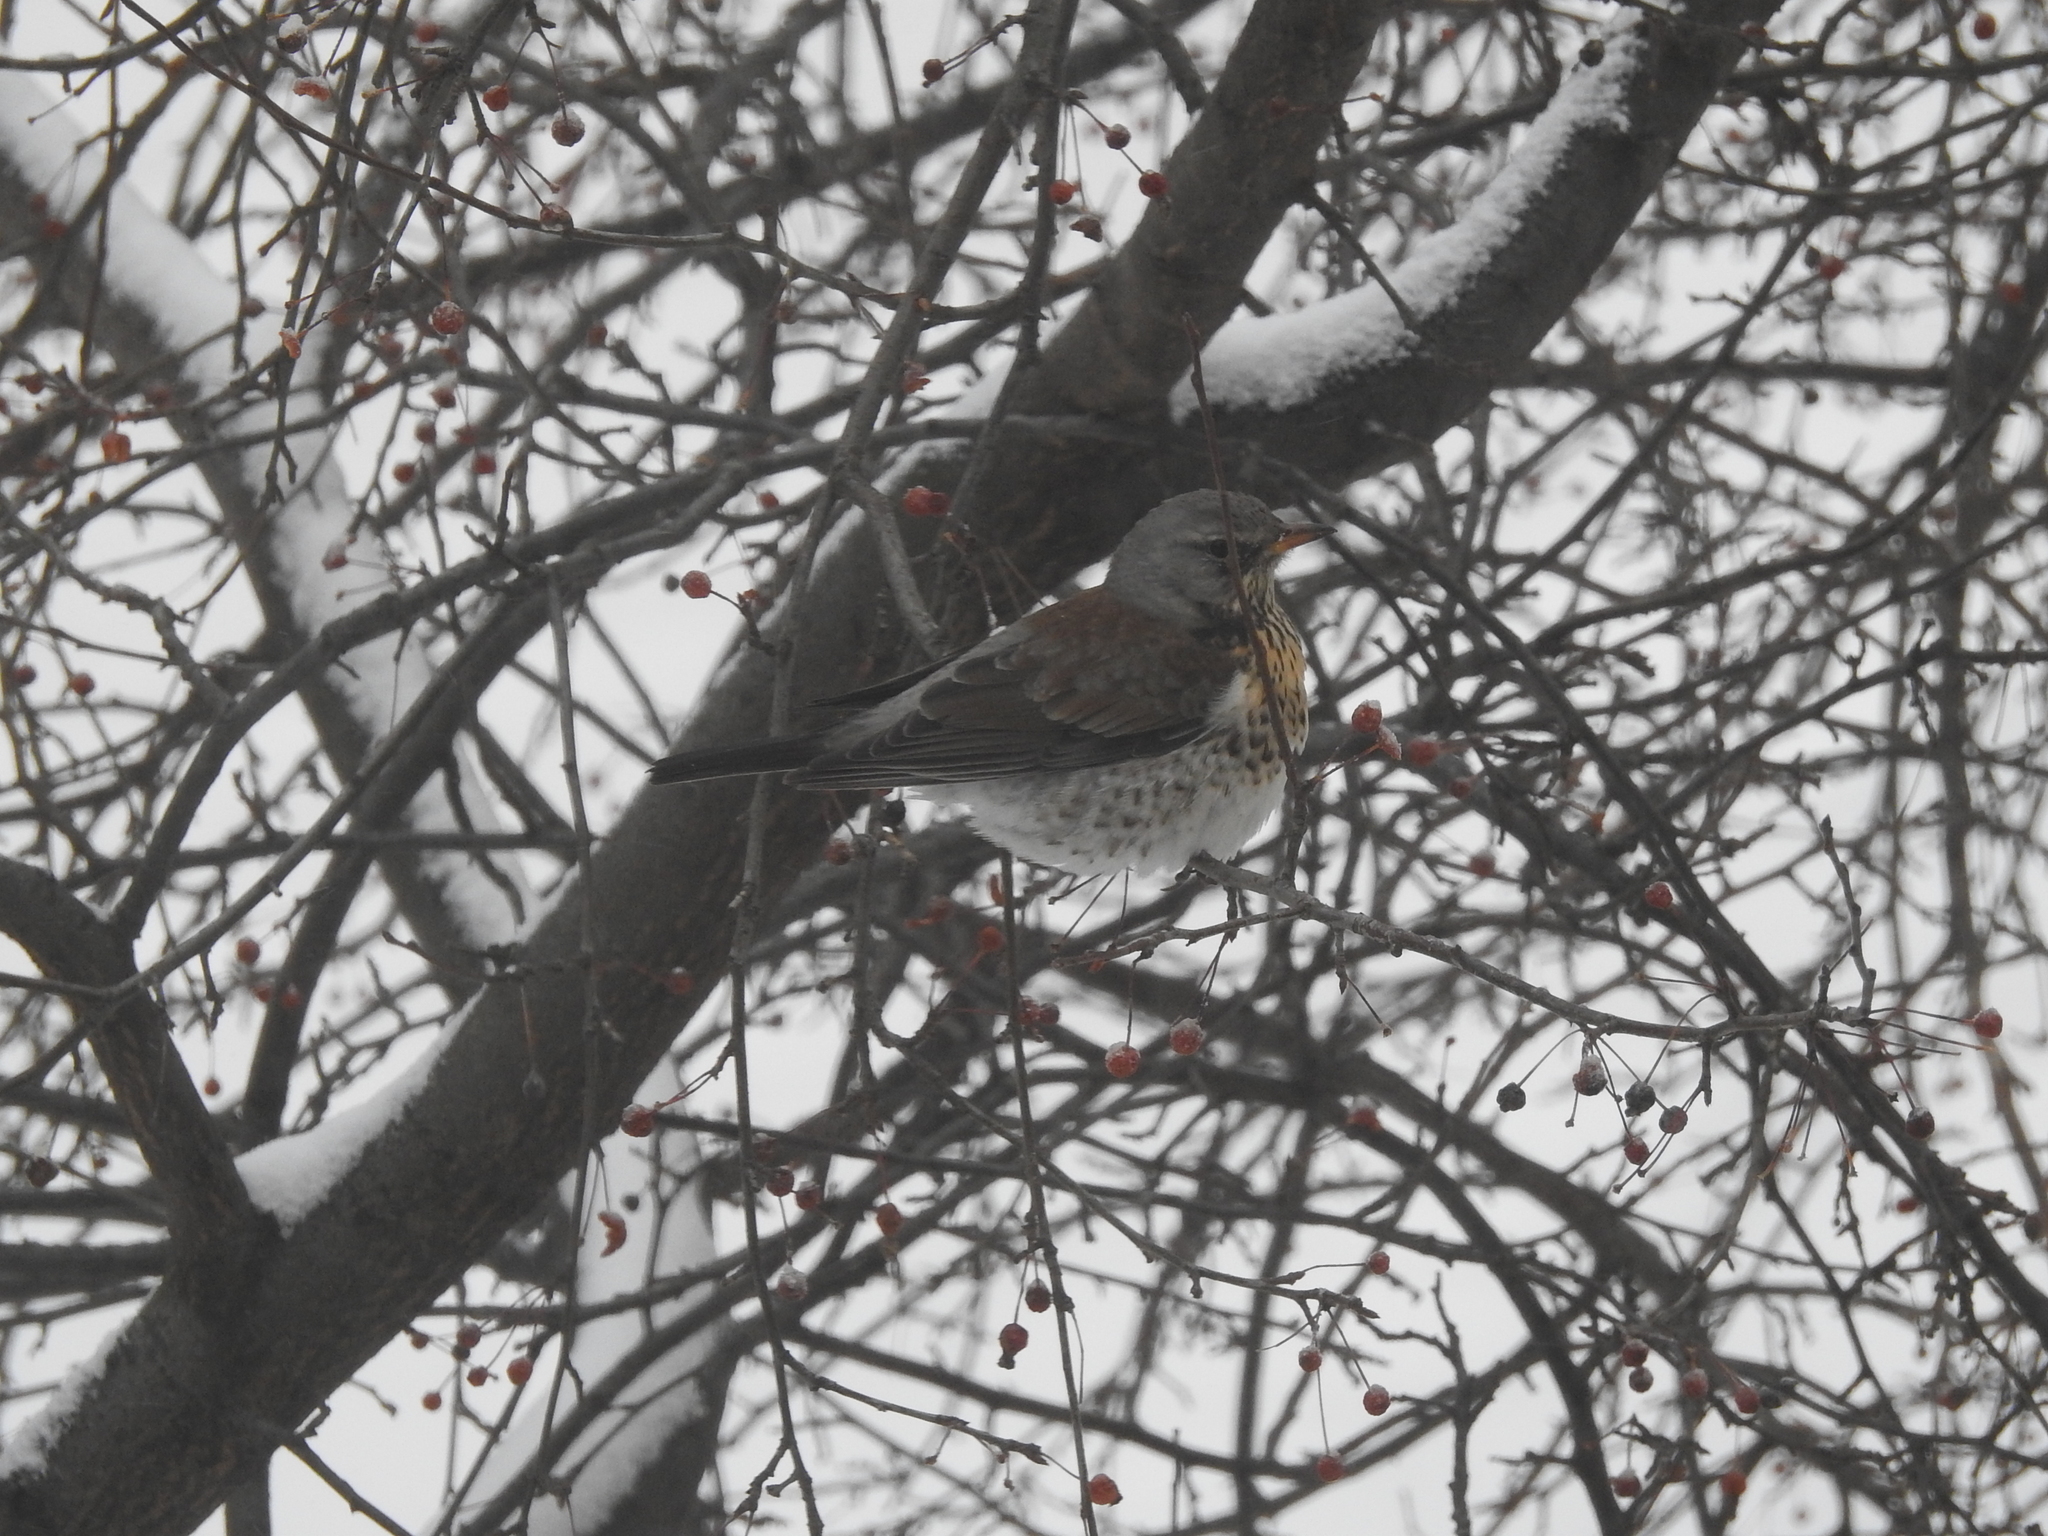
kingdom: Animalia
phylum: Chordata
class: Aves
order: Passeriformes
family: Turdidae
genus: Turdus
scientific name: Turdus pilaris
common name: Fieldfare
